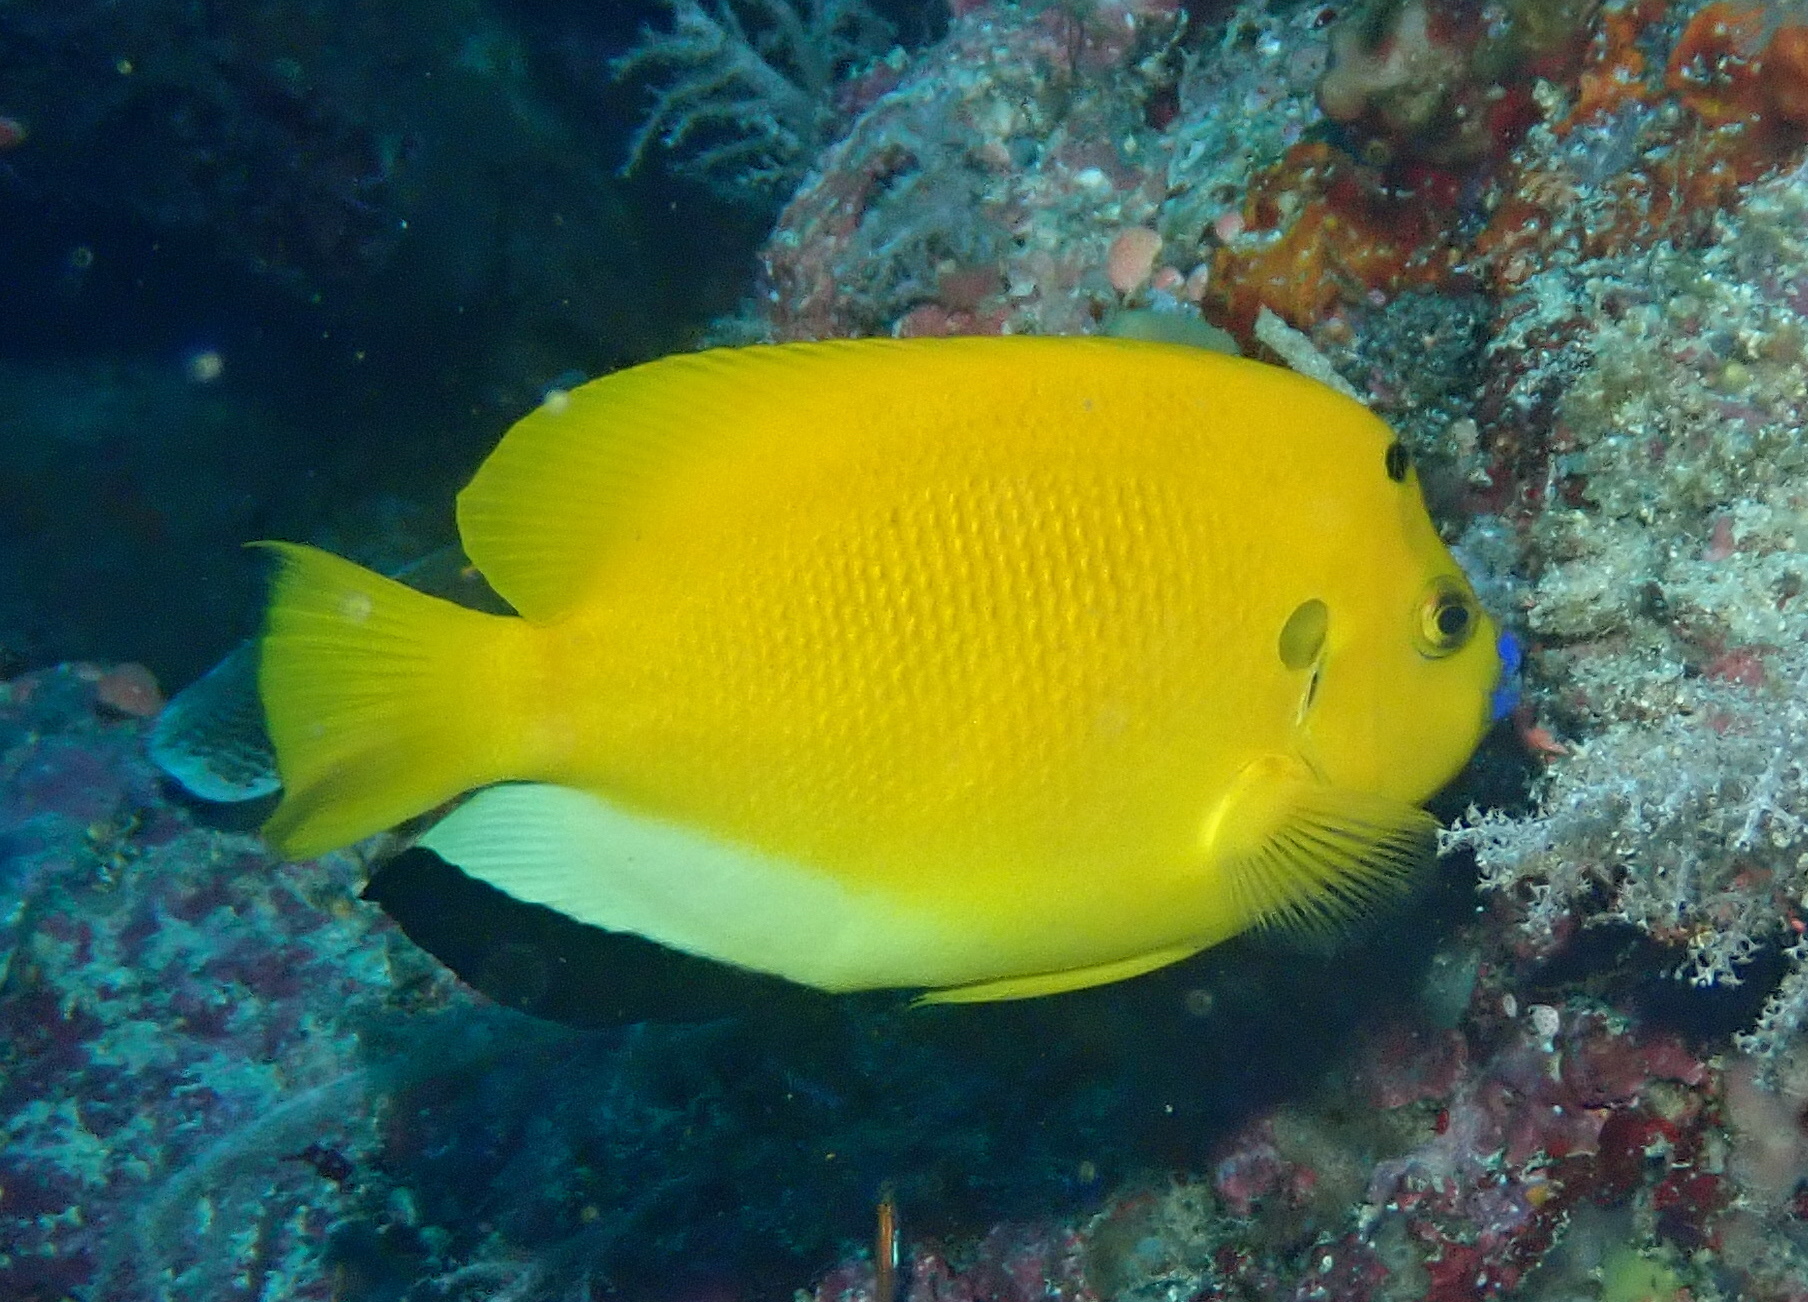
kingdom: Animalia
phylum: Chordata
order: Perciformes
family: Pomacanthidae
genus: Apolemichthys
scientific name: Apolemichthys trimaculatus
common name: Threespot angelfish
